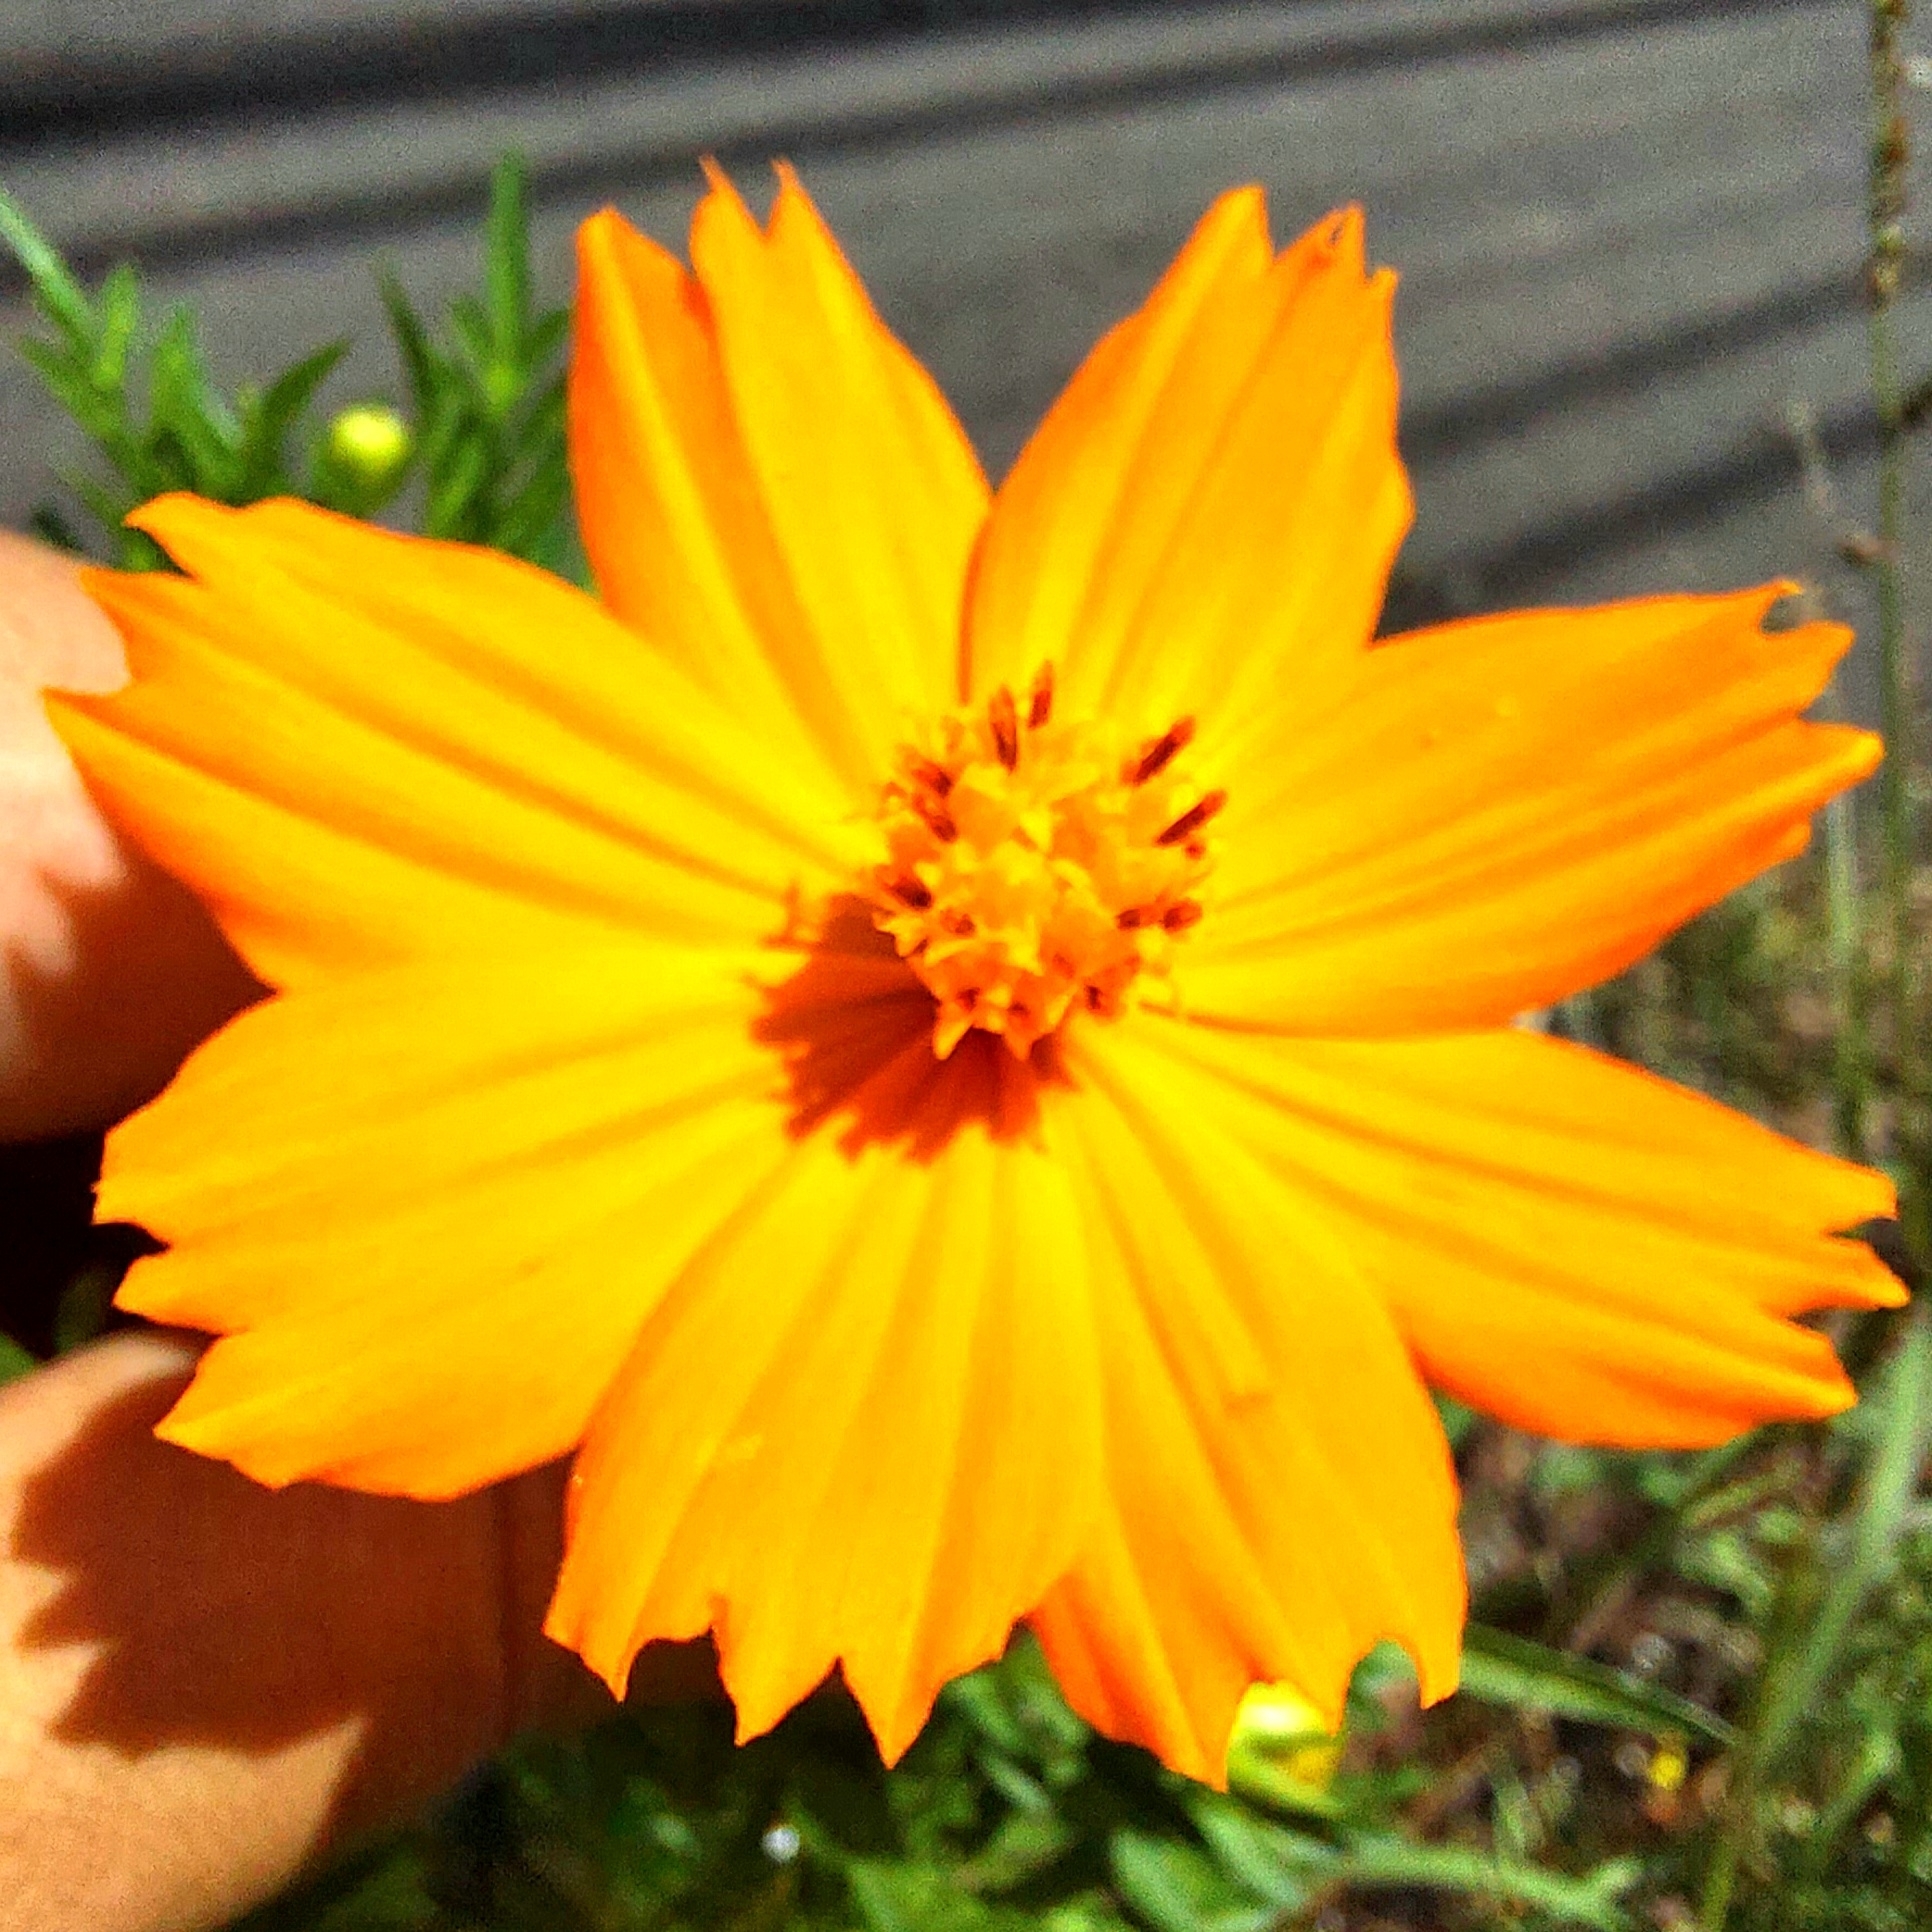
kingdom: Plantae
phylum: Tracheophyta
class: Magnoliopsida
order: Asterales
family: Asteraceae
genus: Cosmos
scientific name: Cosmos sulphureus
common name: Sulphur cosmos
